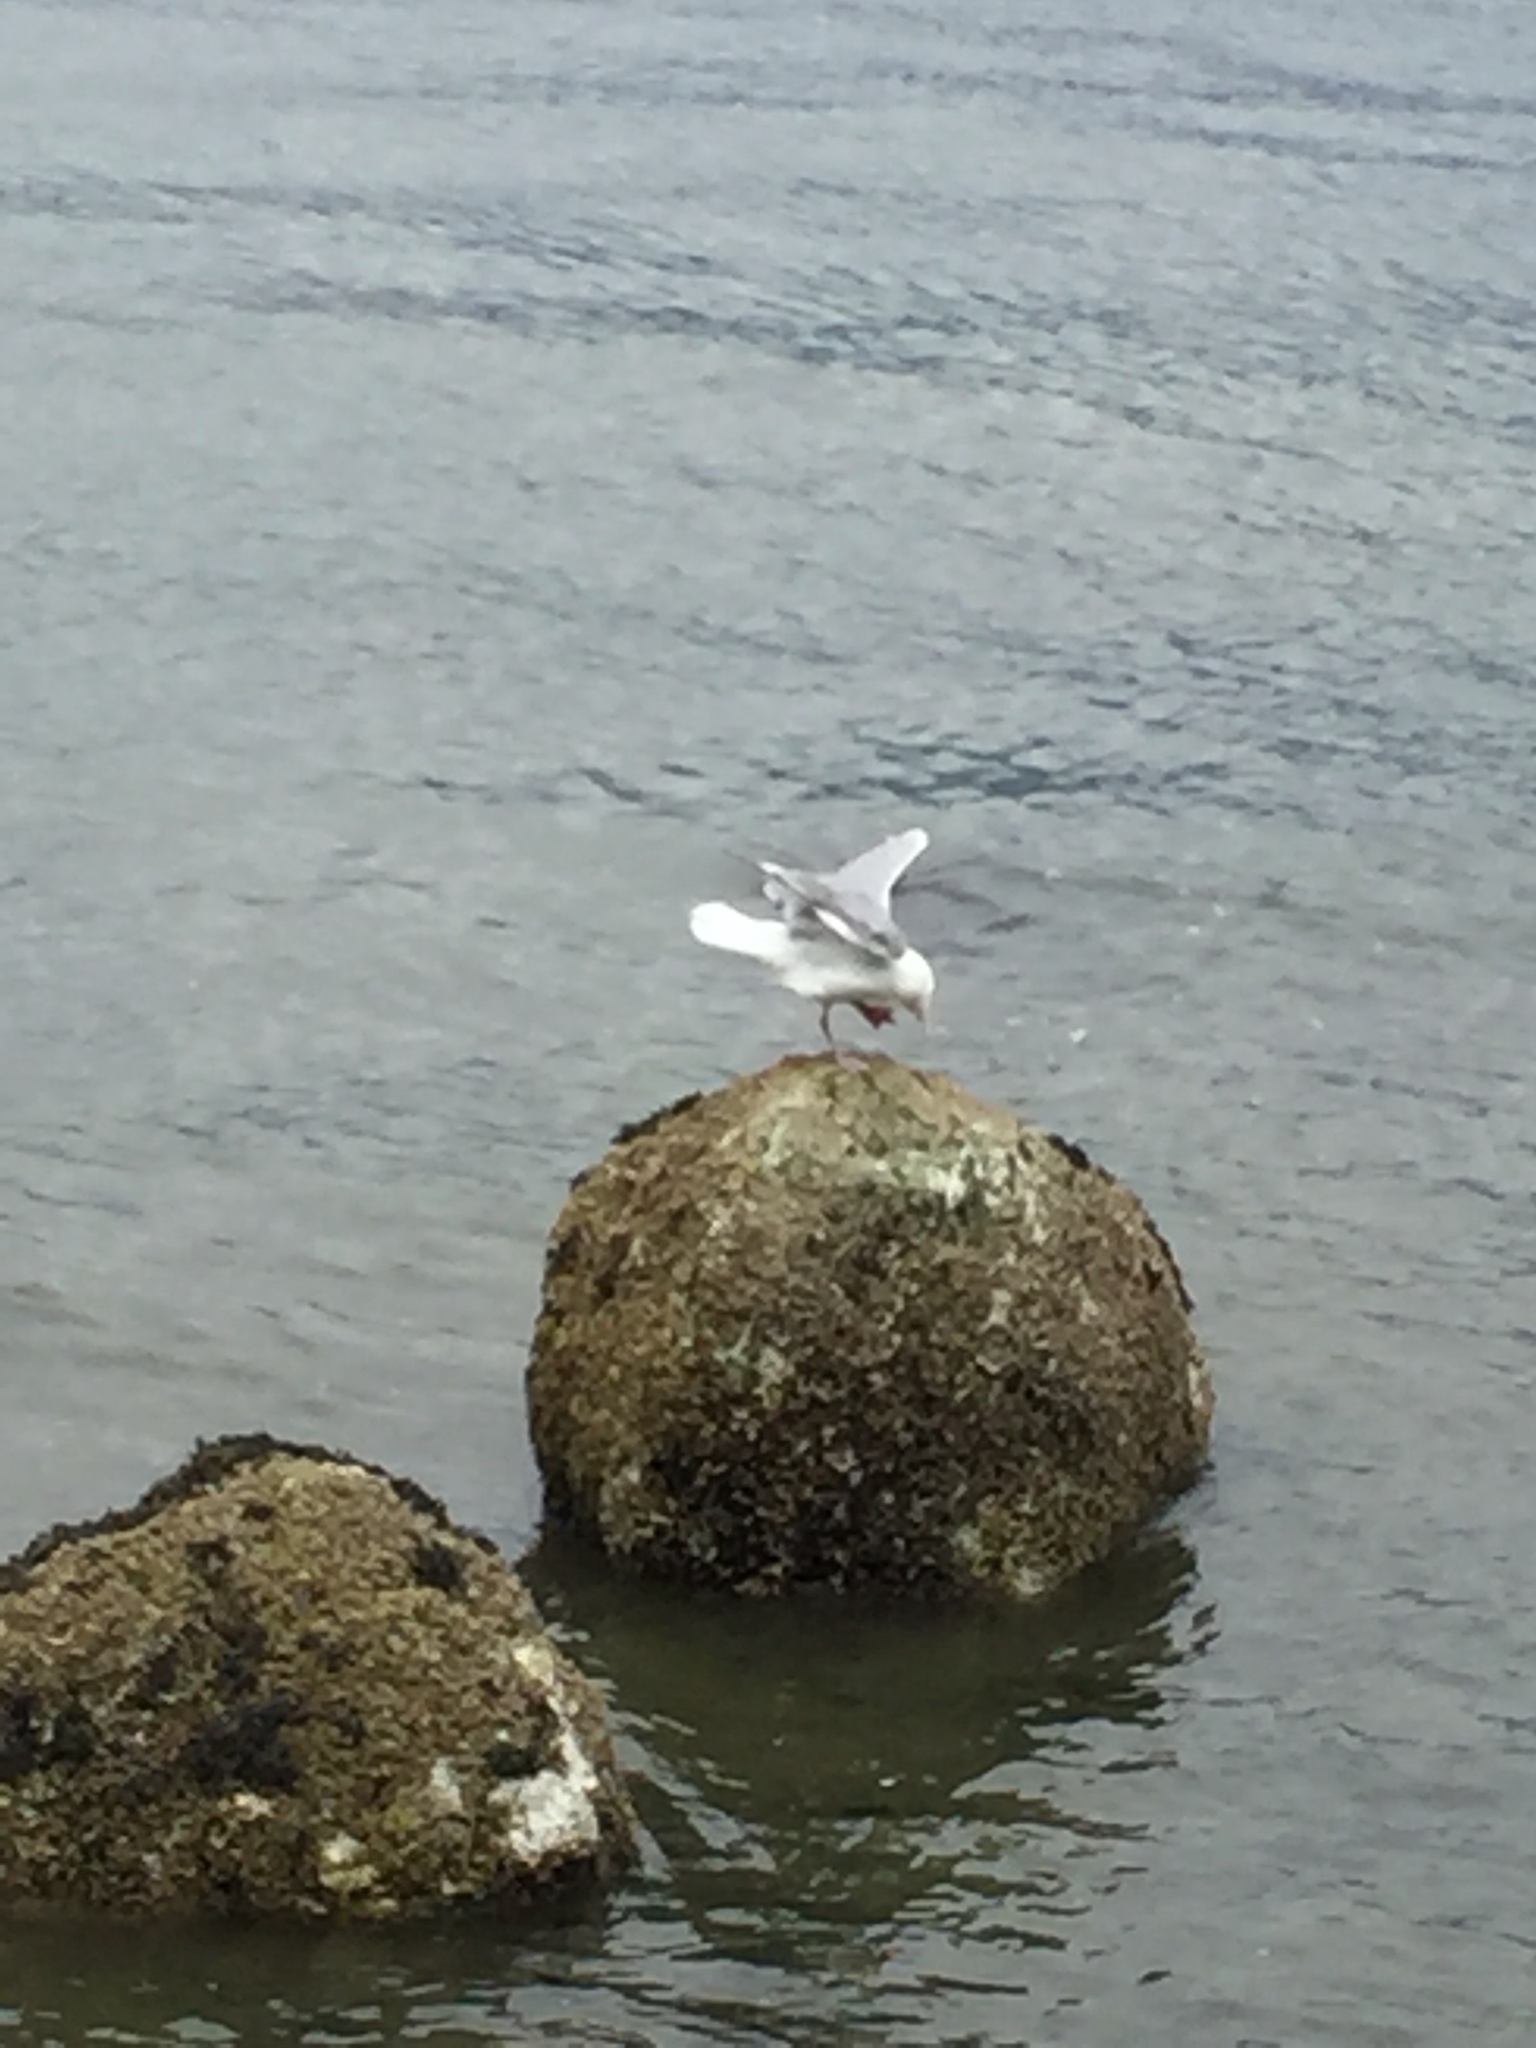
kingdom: Animalia
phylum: Chordata
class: Aves
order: Charadriiformes
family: Laridae
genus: Larus
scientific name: Larus
